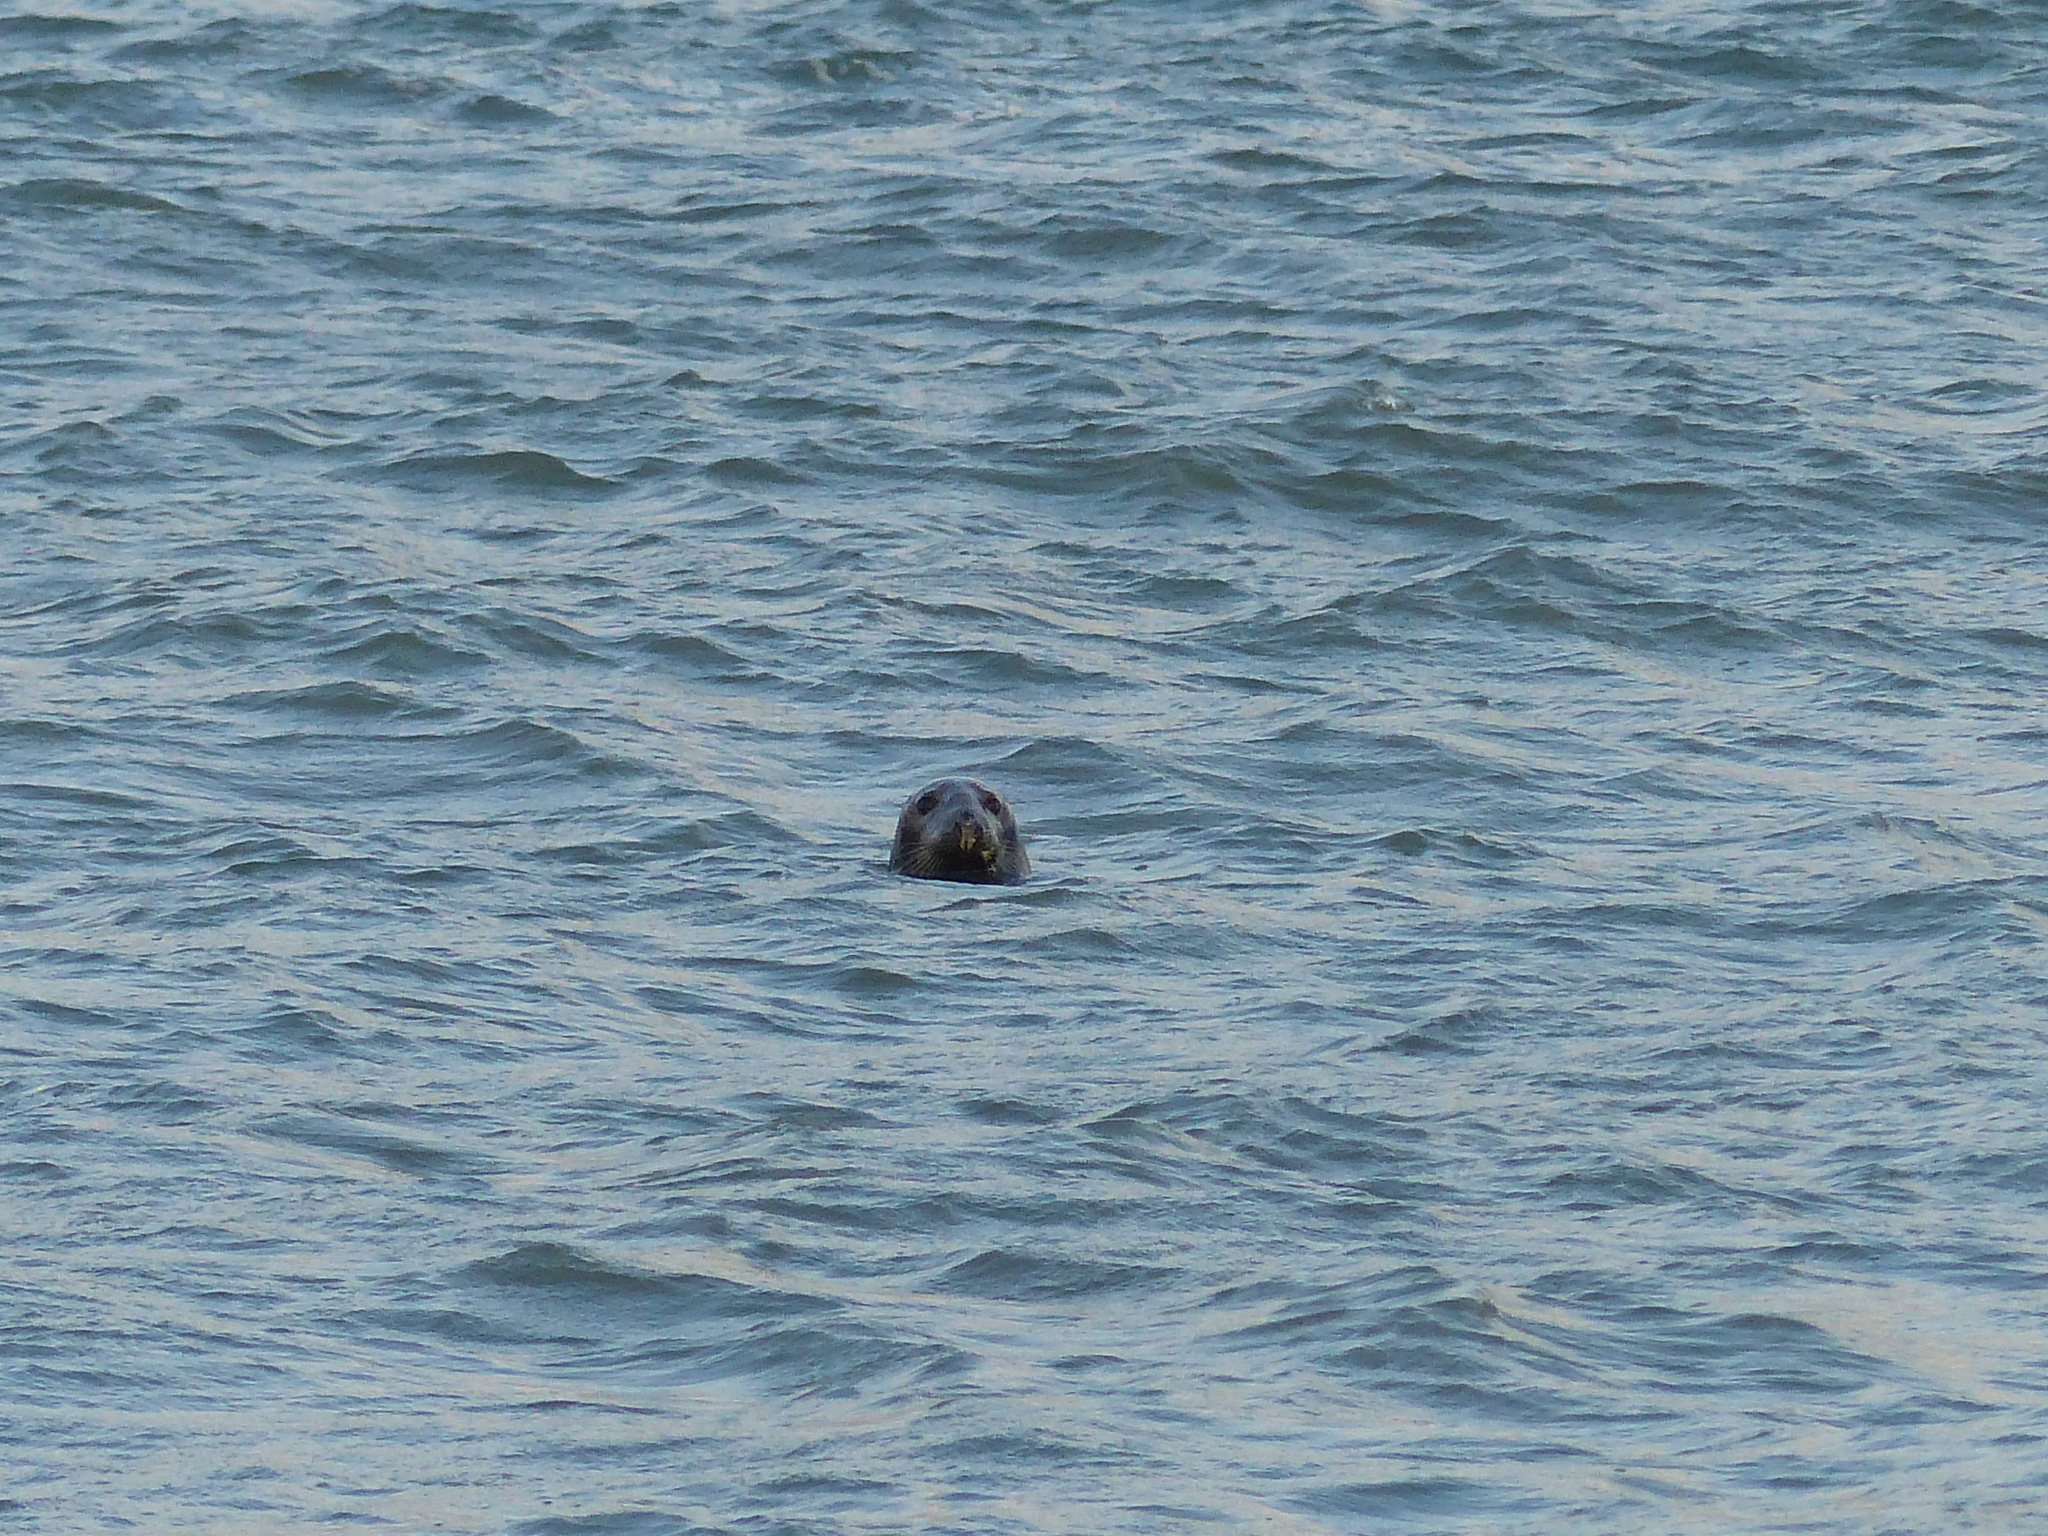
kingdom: Animalia
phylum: Chordata
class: Mammalia
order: Carnivora
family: Phocidae
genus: Halichoerus
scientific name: Halichoerus grypus
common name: Grey seal
